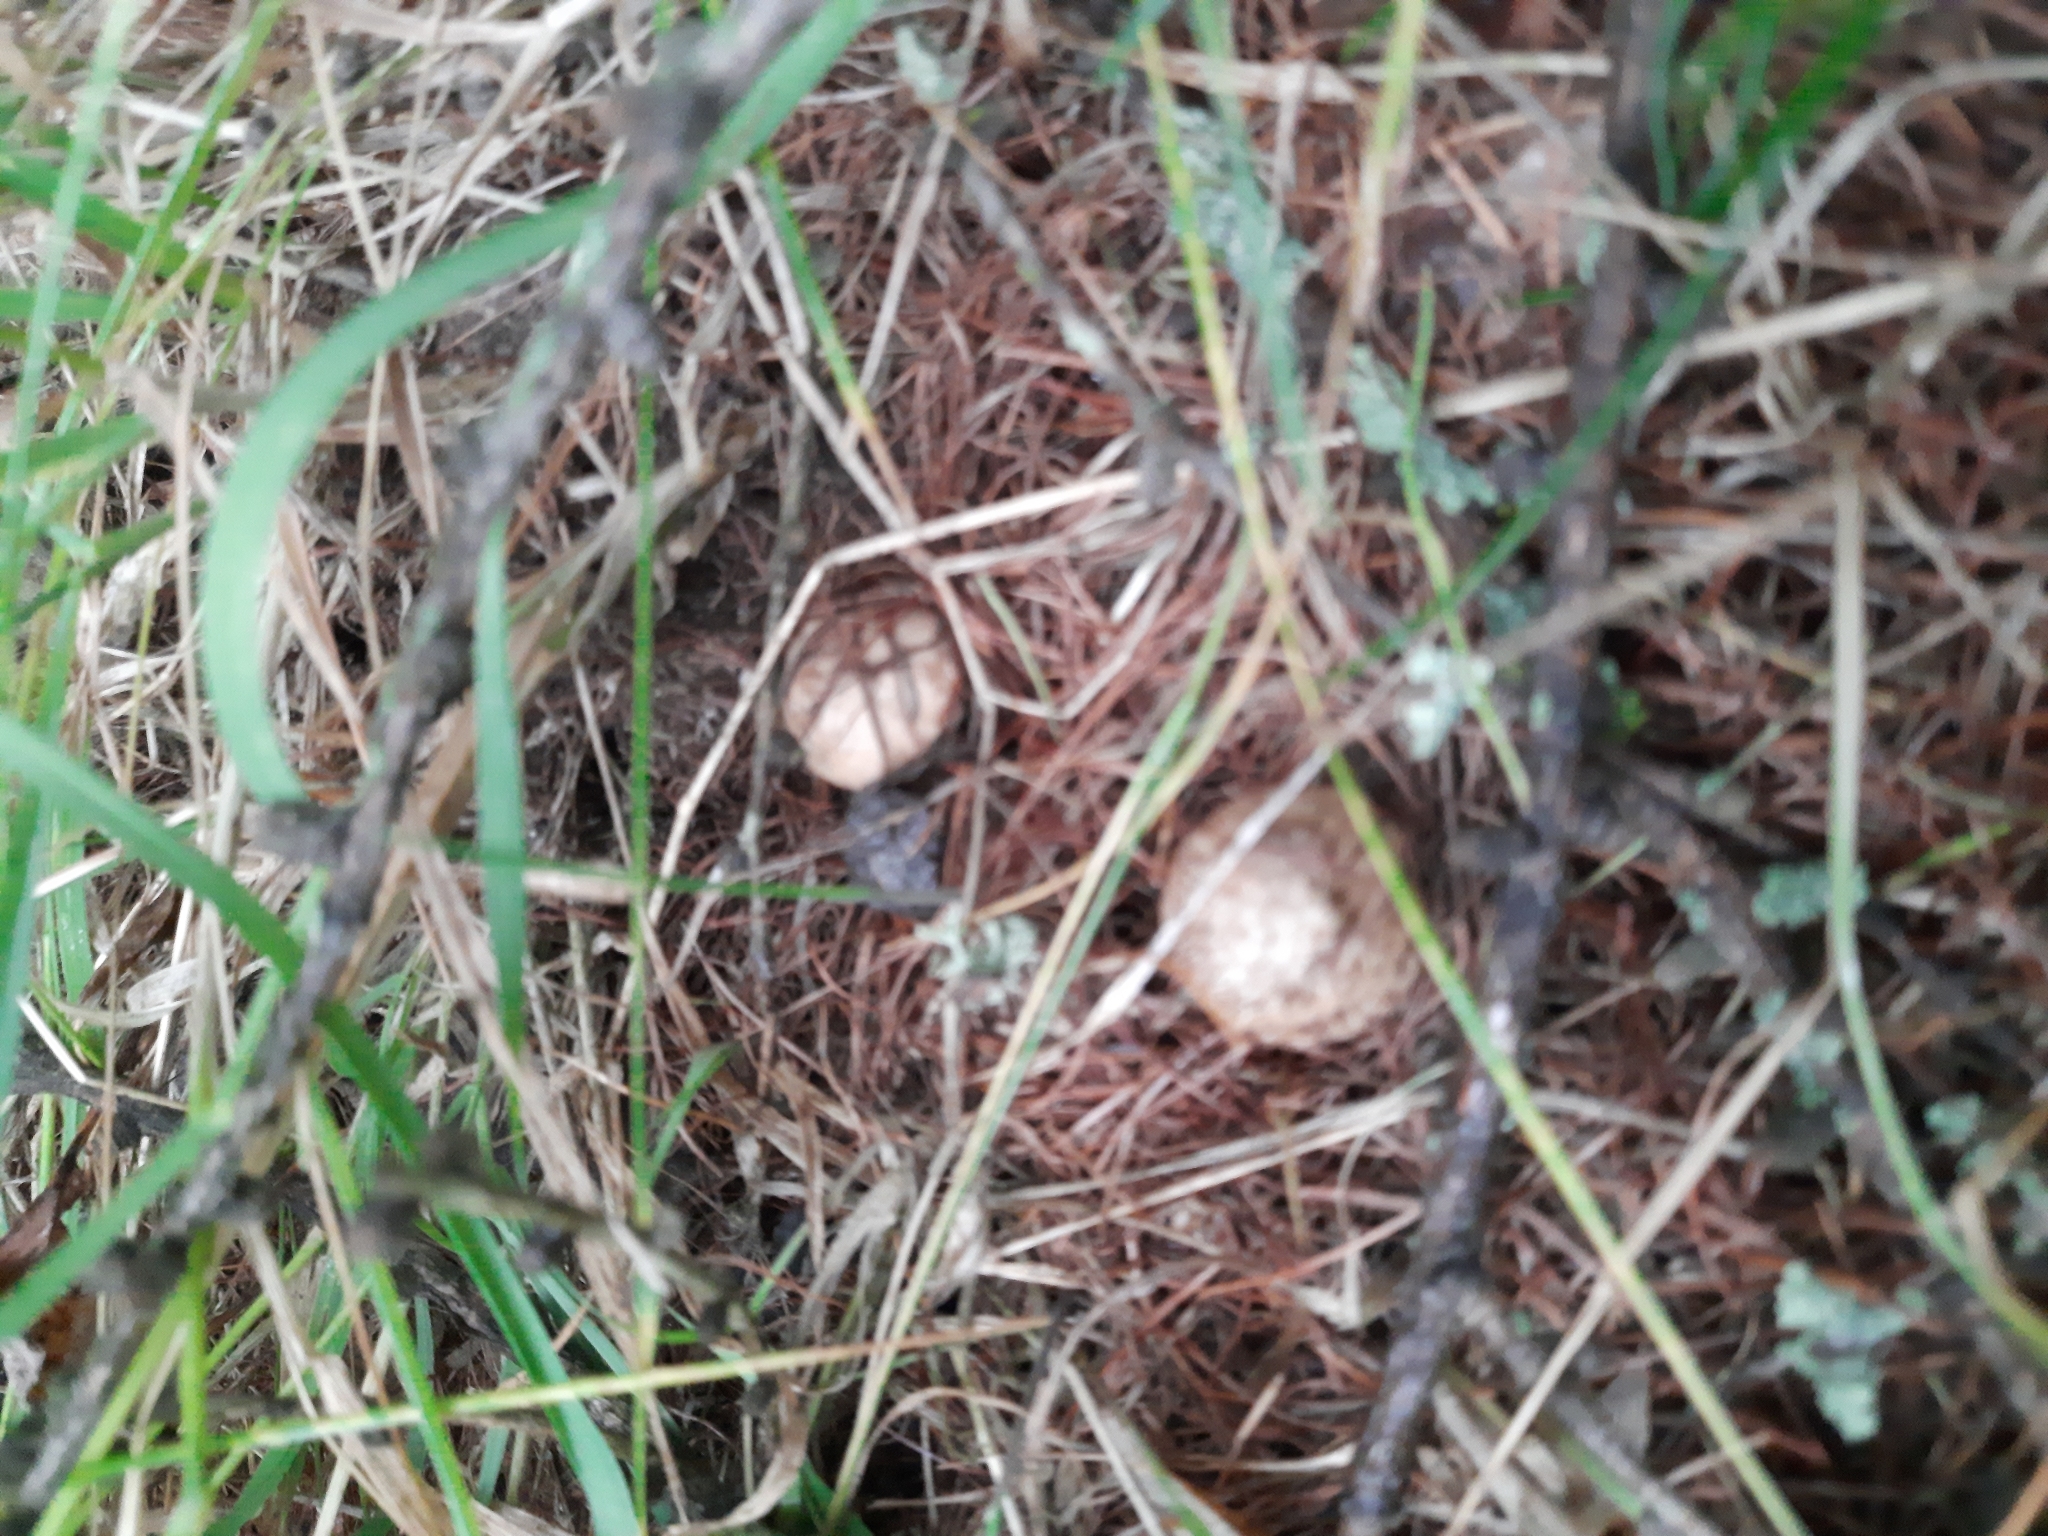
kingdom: Fungi
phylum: Basidiomycota
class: Agaricomycetes
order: Boletales
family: Suillaceae
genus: Suillus
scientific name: Suillus viscidus
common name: Sticky bolete
